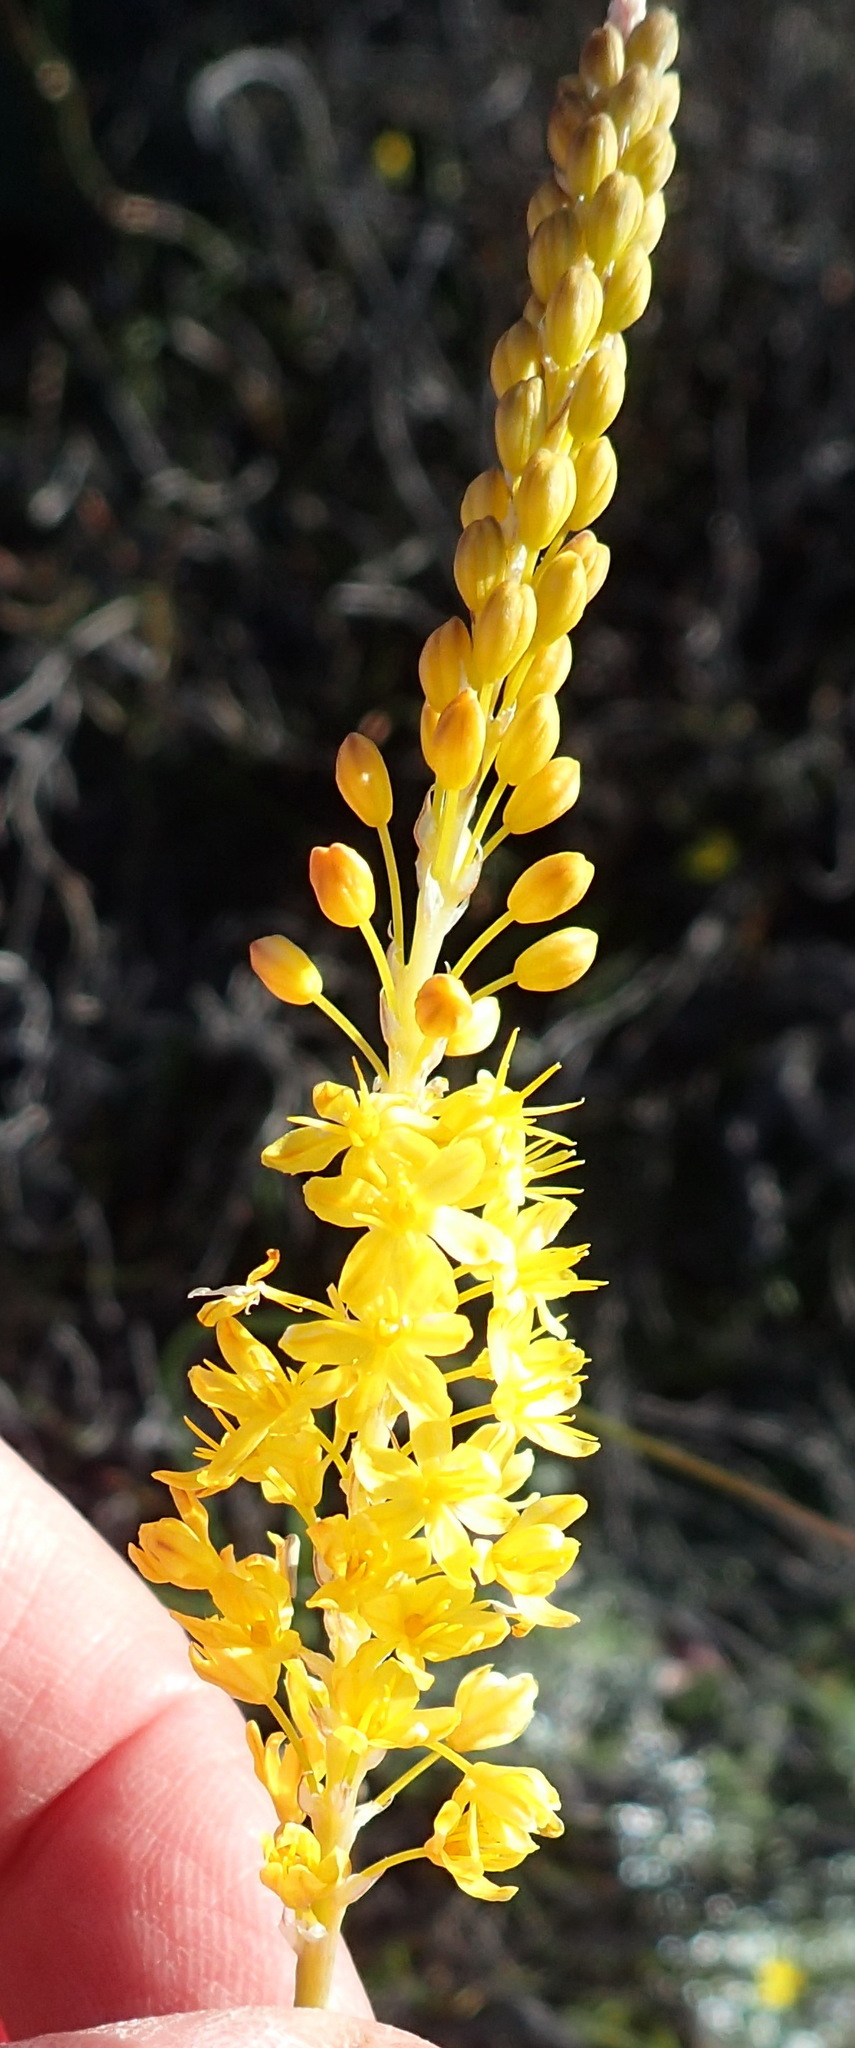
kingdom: Plantae
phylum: Tracheophyta
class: Liliopsida
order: Asparagales
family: Asphodelaceae
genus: Bulbinella
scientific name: Bulbinella punctulata
